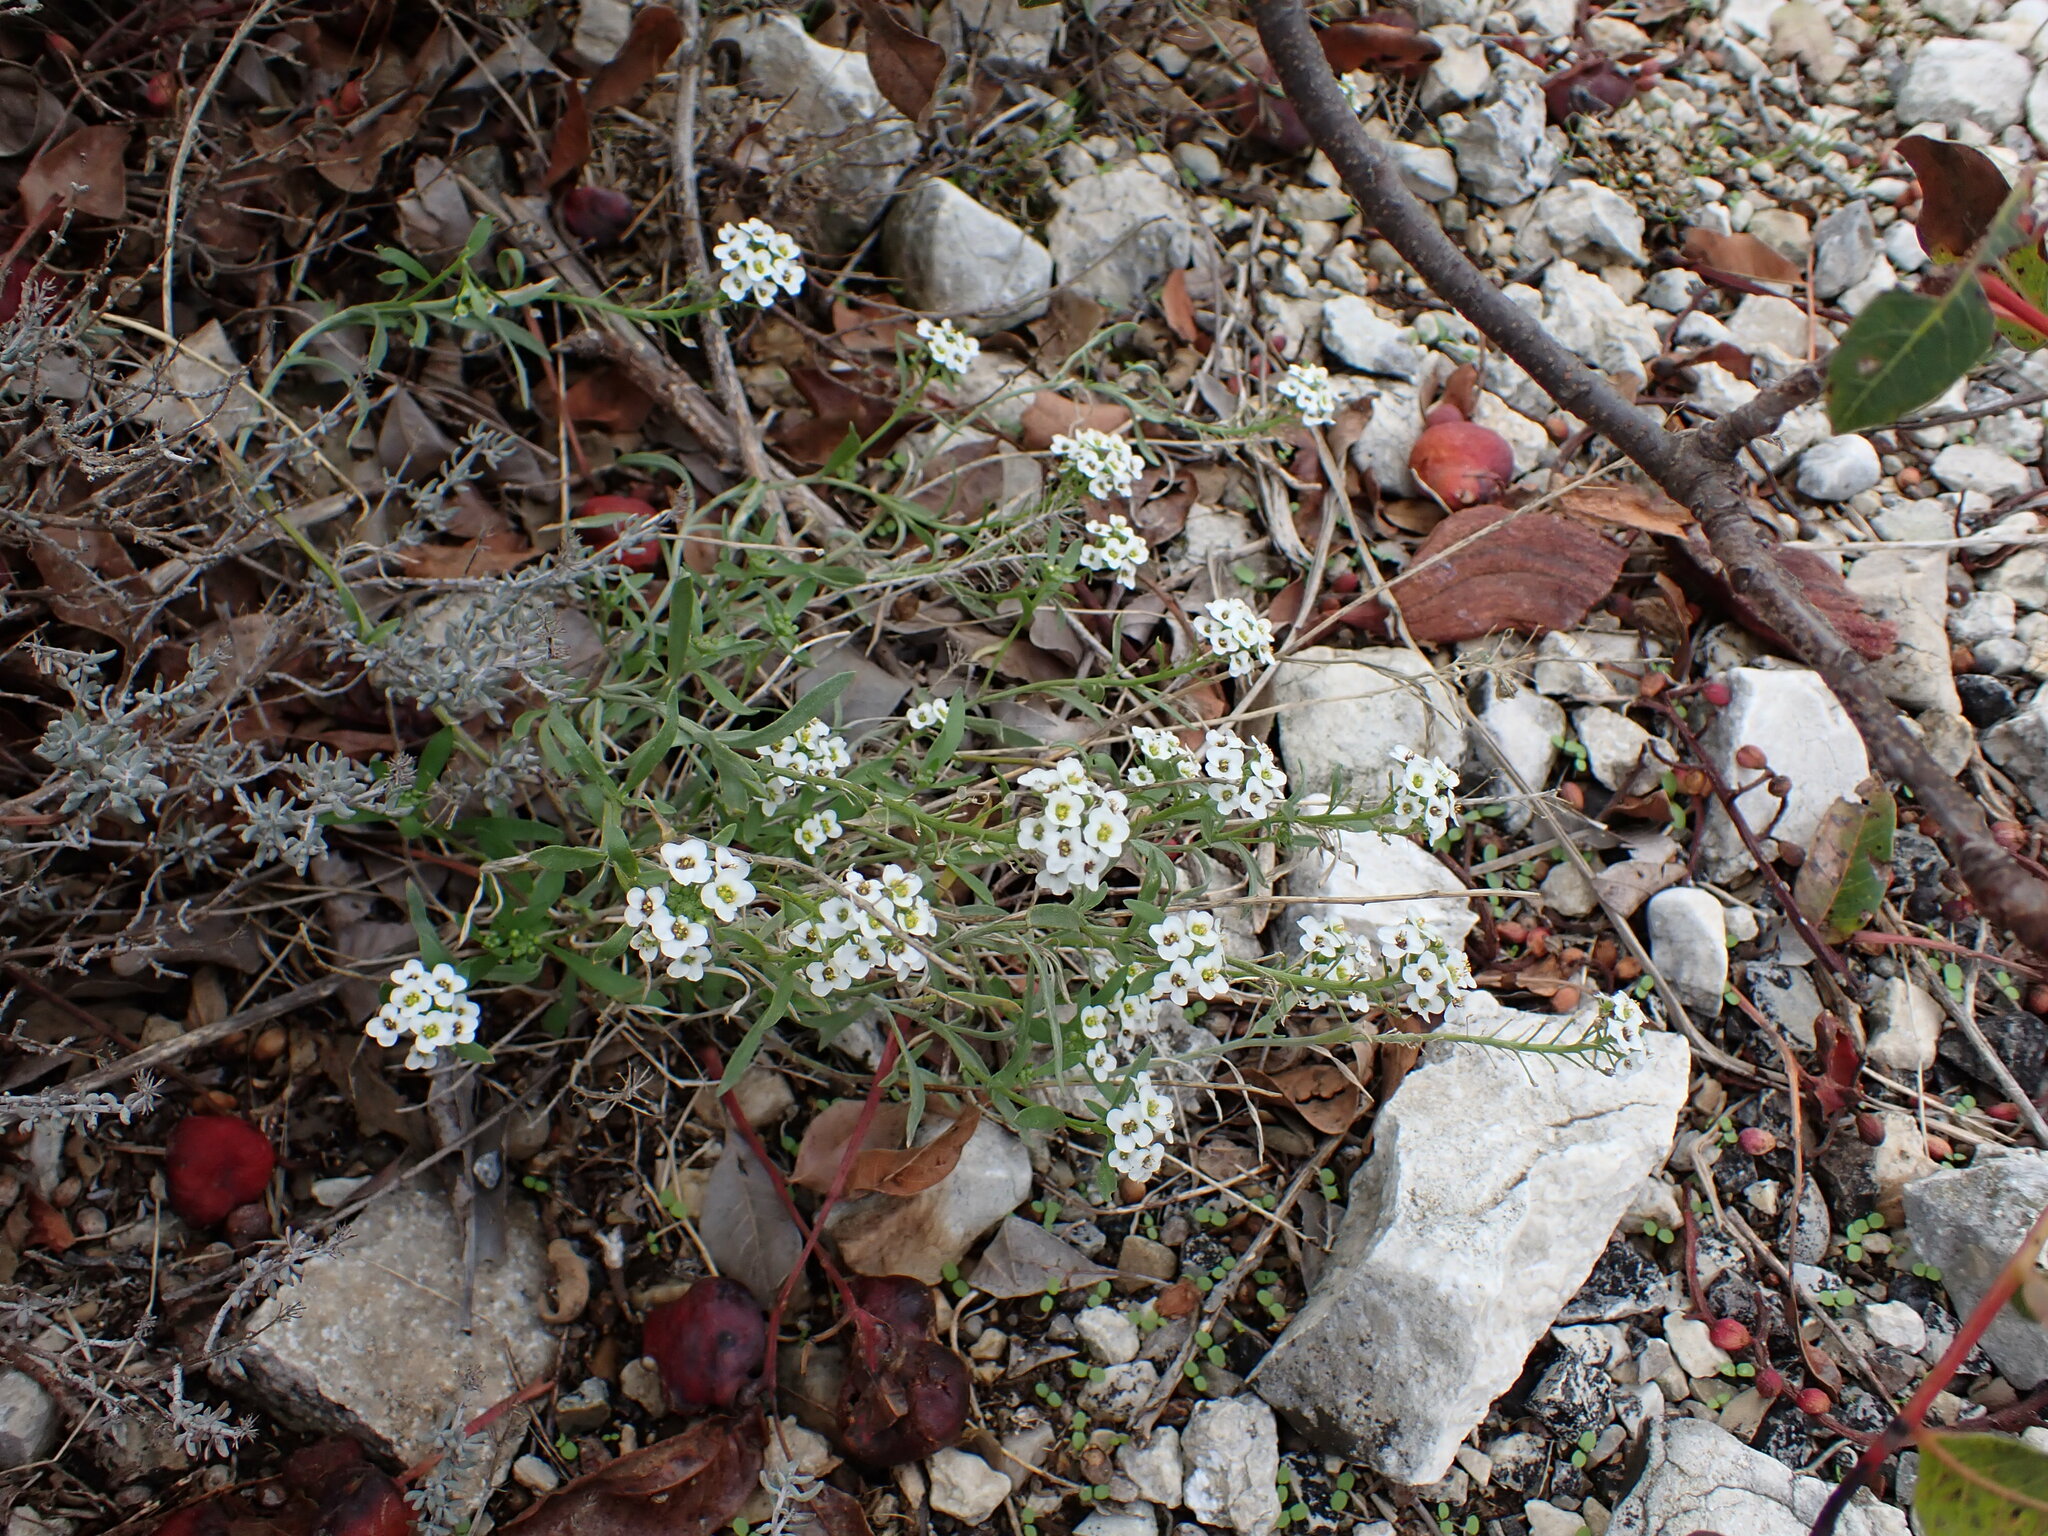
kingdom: Plantae
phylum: Tracheophyta
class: Magnoliopsida
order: Brassicales
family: Brassicaceae
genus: Lobularia
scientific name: Lobularia maritima
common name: Sweet alison
